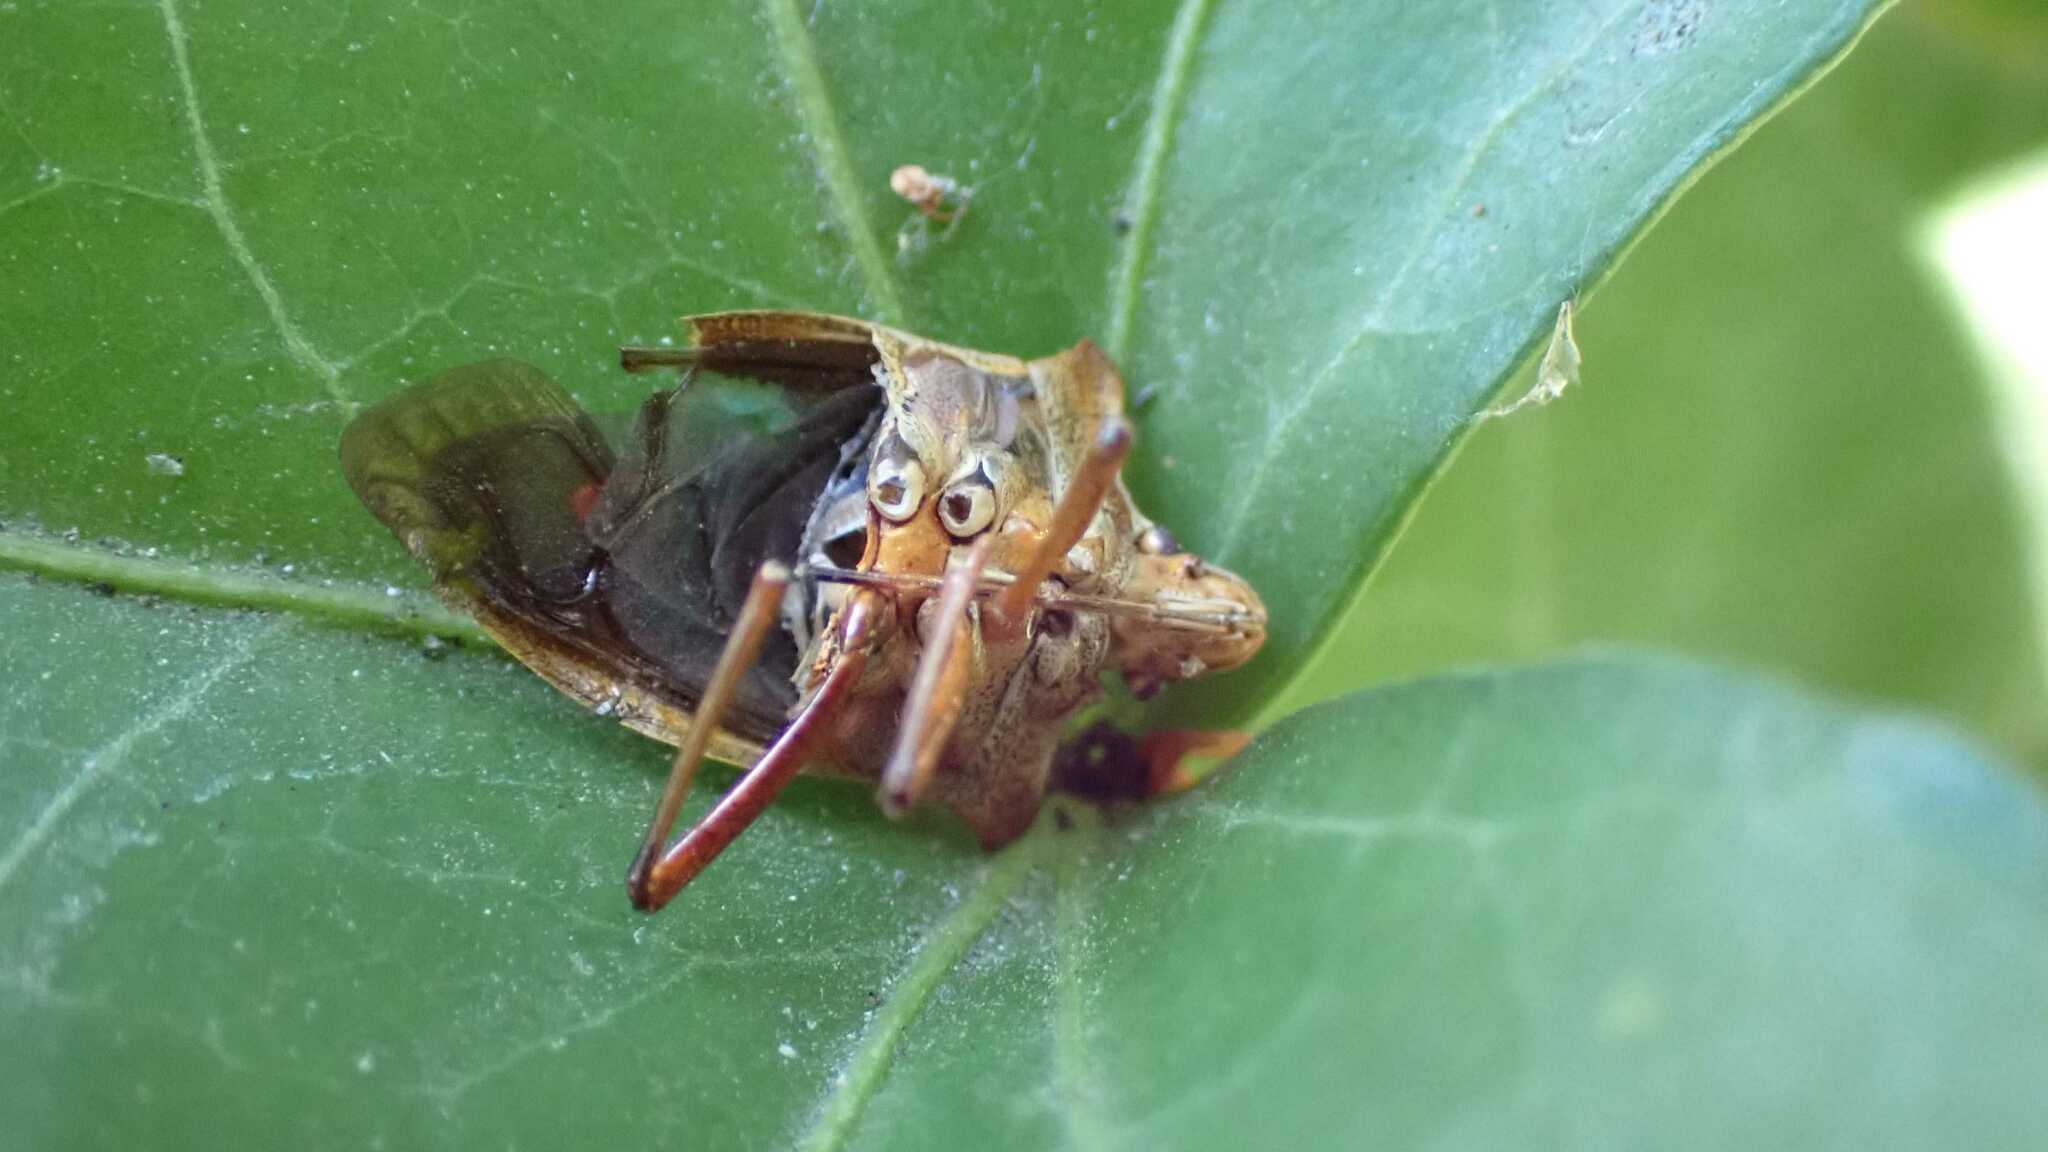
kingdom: Animalia
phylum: Arthropoda
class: Insecta
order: Hemiptera
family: Pentatomidae
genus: Pentatoma
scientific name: Pentatoma rufipes
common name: Forest bug
